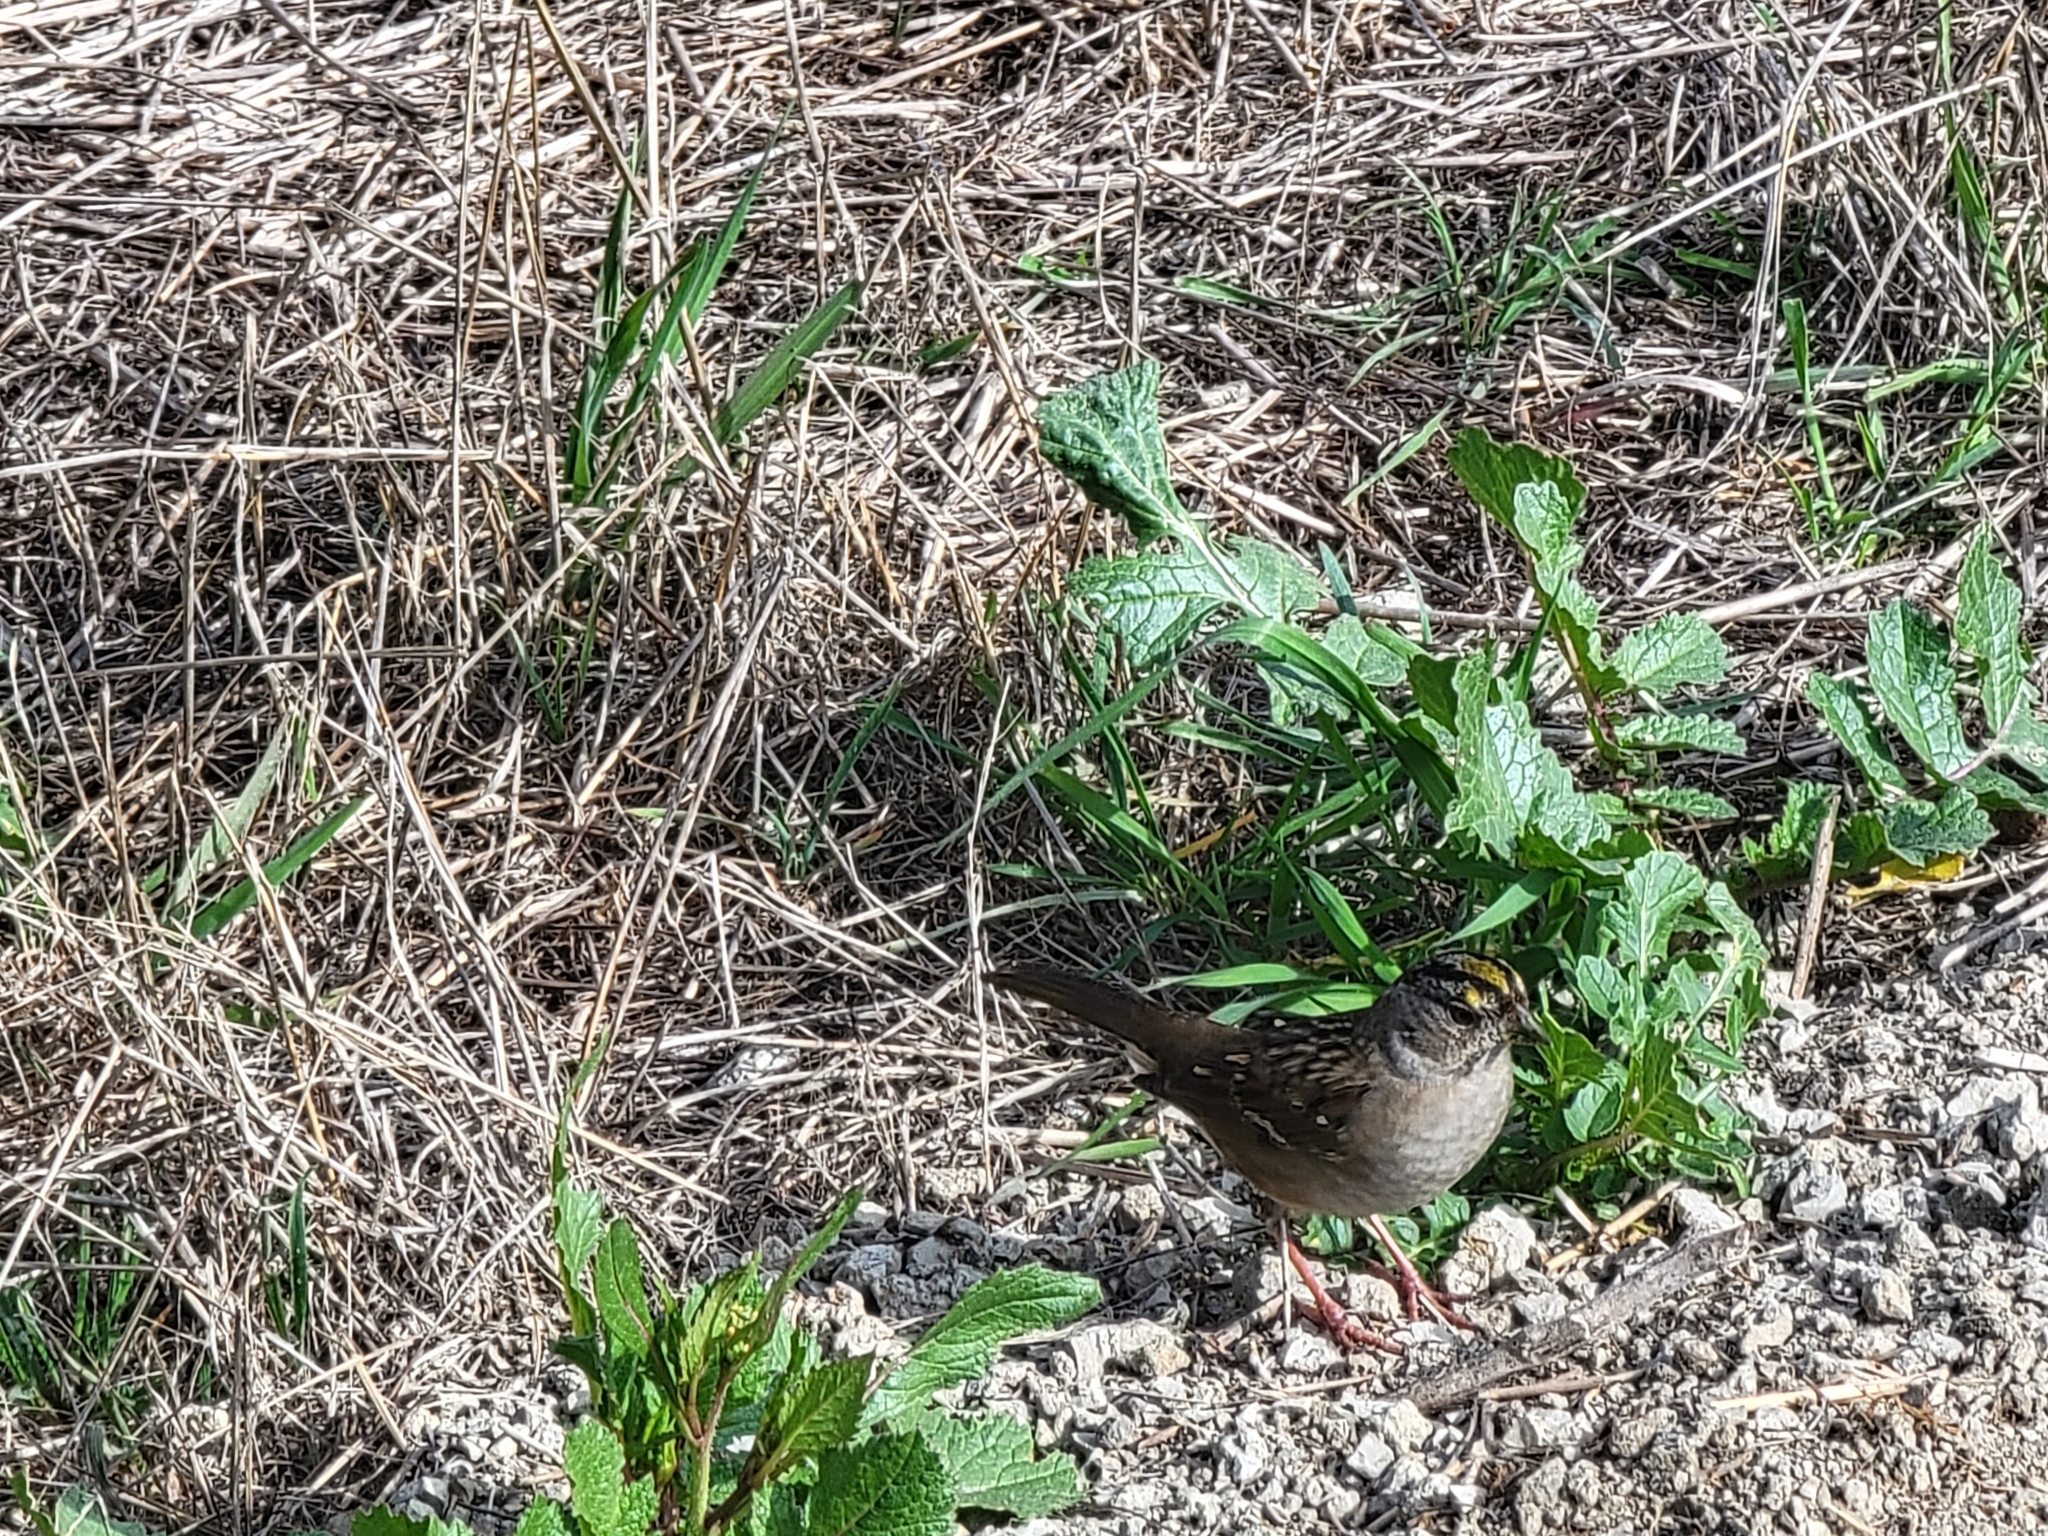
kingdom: Animalia
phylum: Chordata
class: Aves
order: Passeriformes
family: Passerellidae
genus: Zonotrichia
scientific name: Zonotrichia atricapilla
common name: Golden-crowned sparrow
